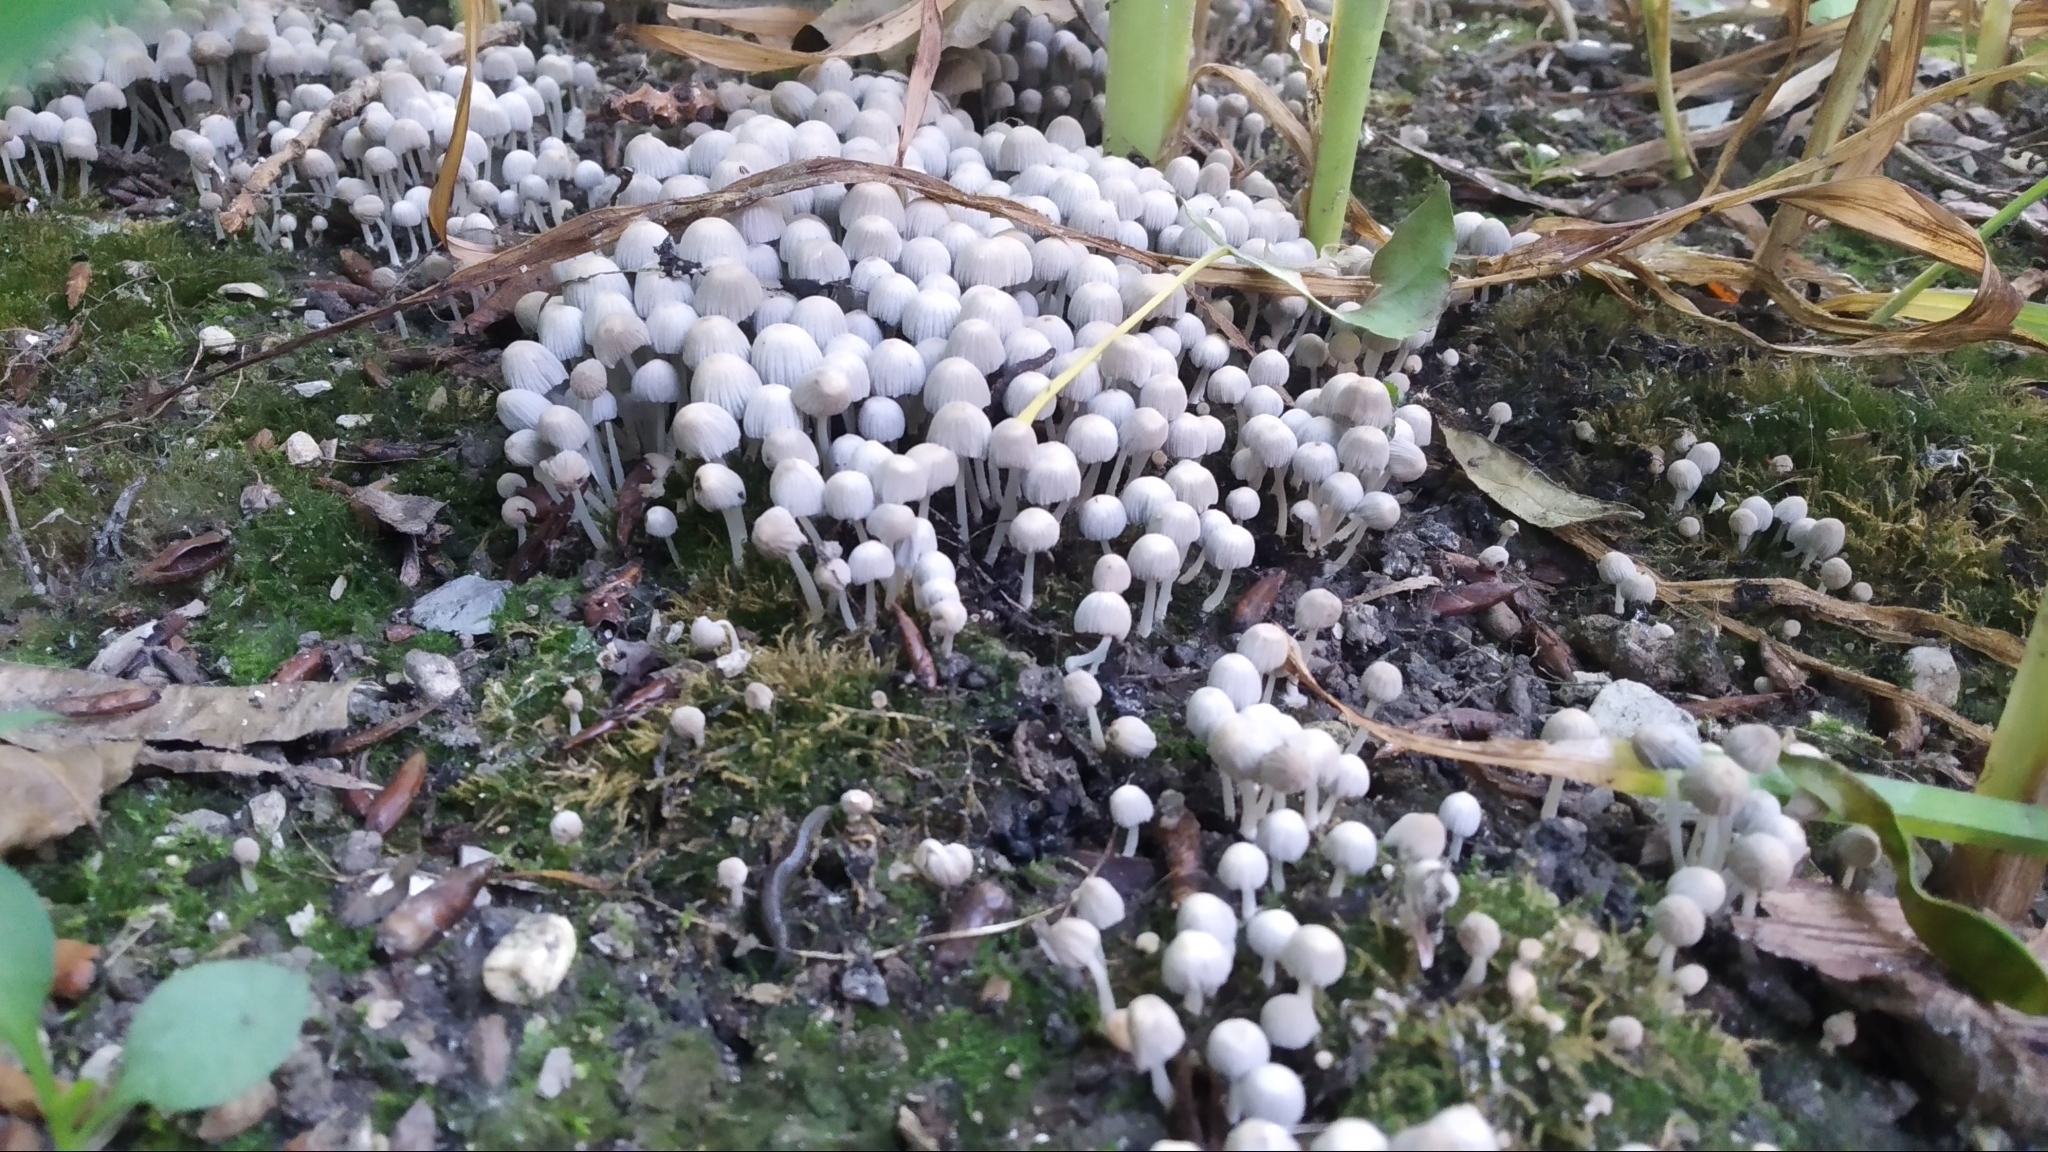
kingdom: Fungi
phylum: Basidiomycota
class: Agaricomycetes
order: Agaricales
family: Psathyrellaceae
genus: Coprinellus
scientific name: Coprinellus disseminatus
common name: Fairies' bonnets
